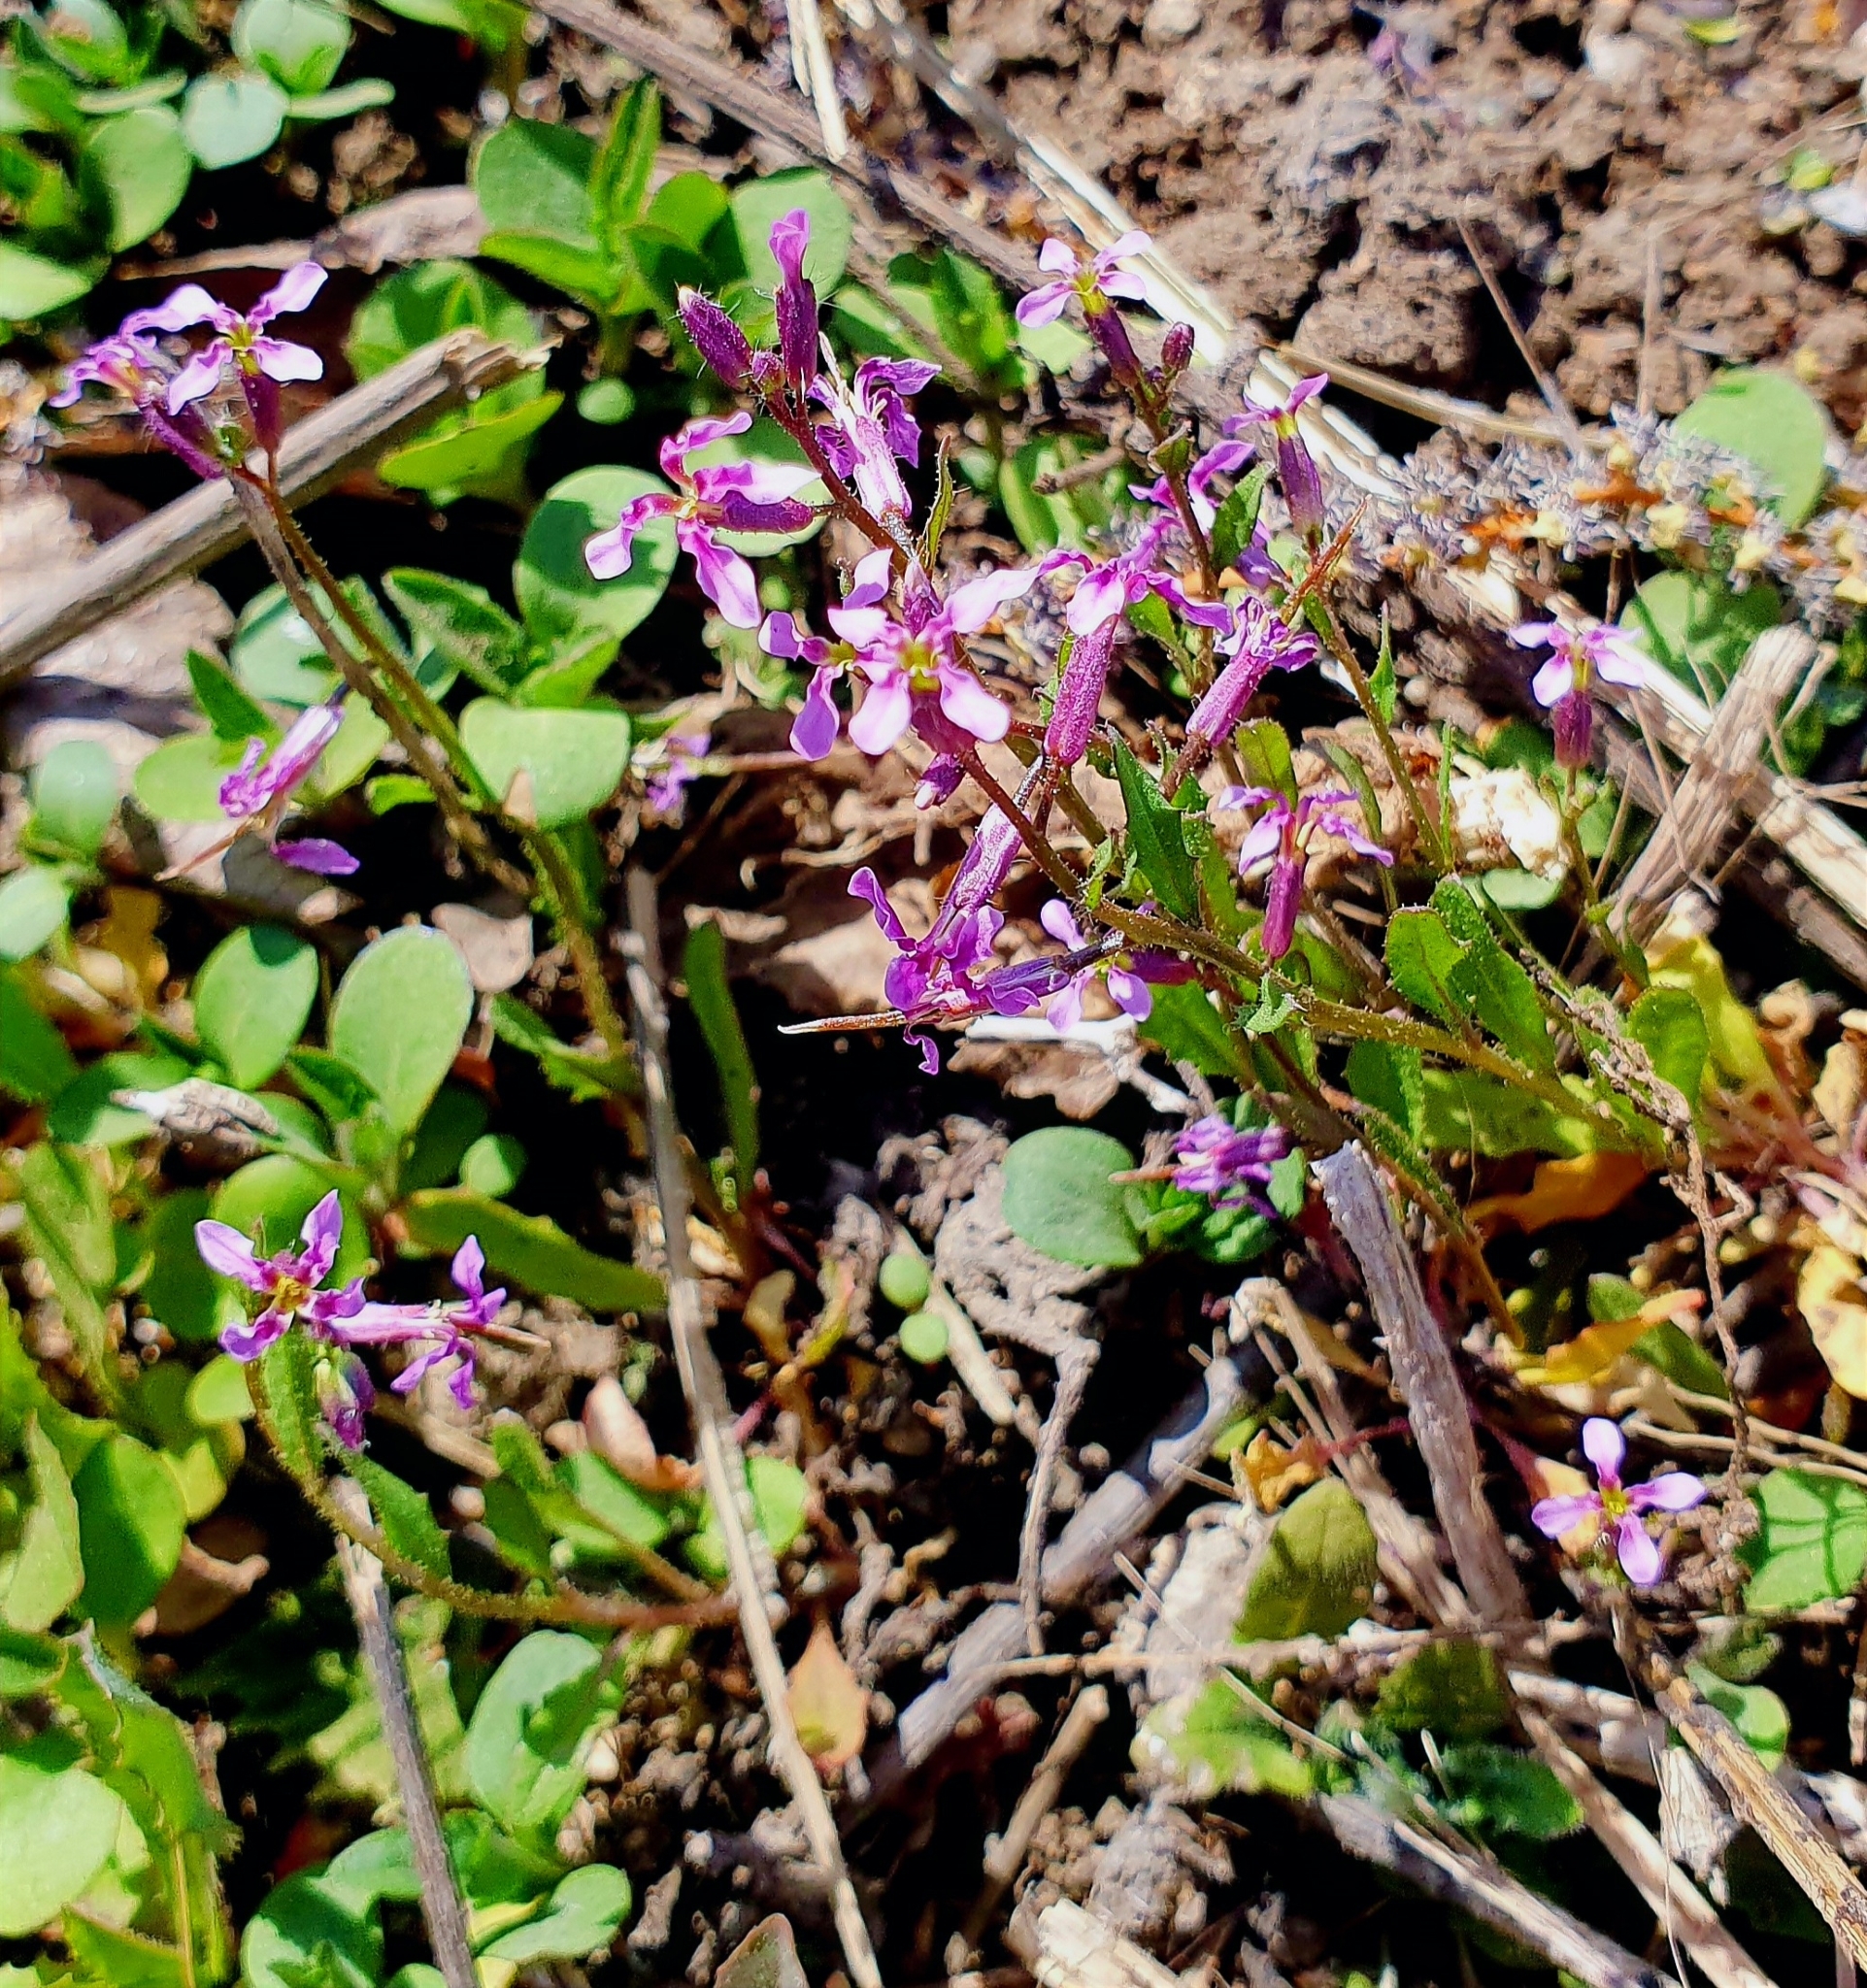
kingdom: Plantae
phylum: Tracheophyta
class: Magnoliopsida
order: Brassicales
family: Brassicaceae
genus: Chorispora
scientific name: Chorispora tenella
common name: Crossflower
